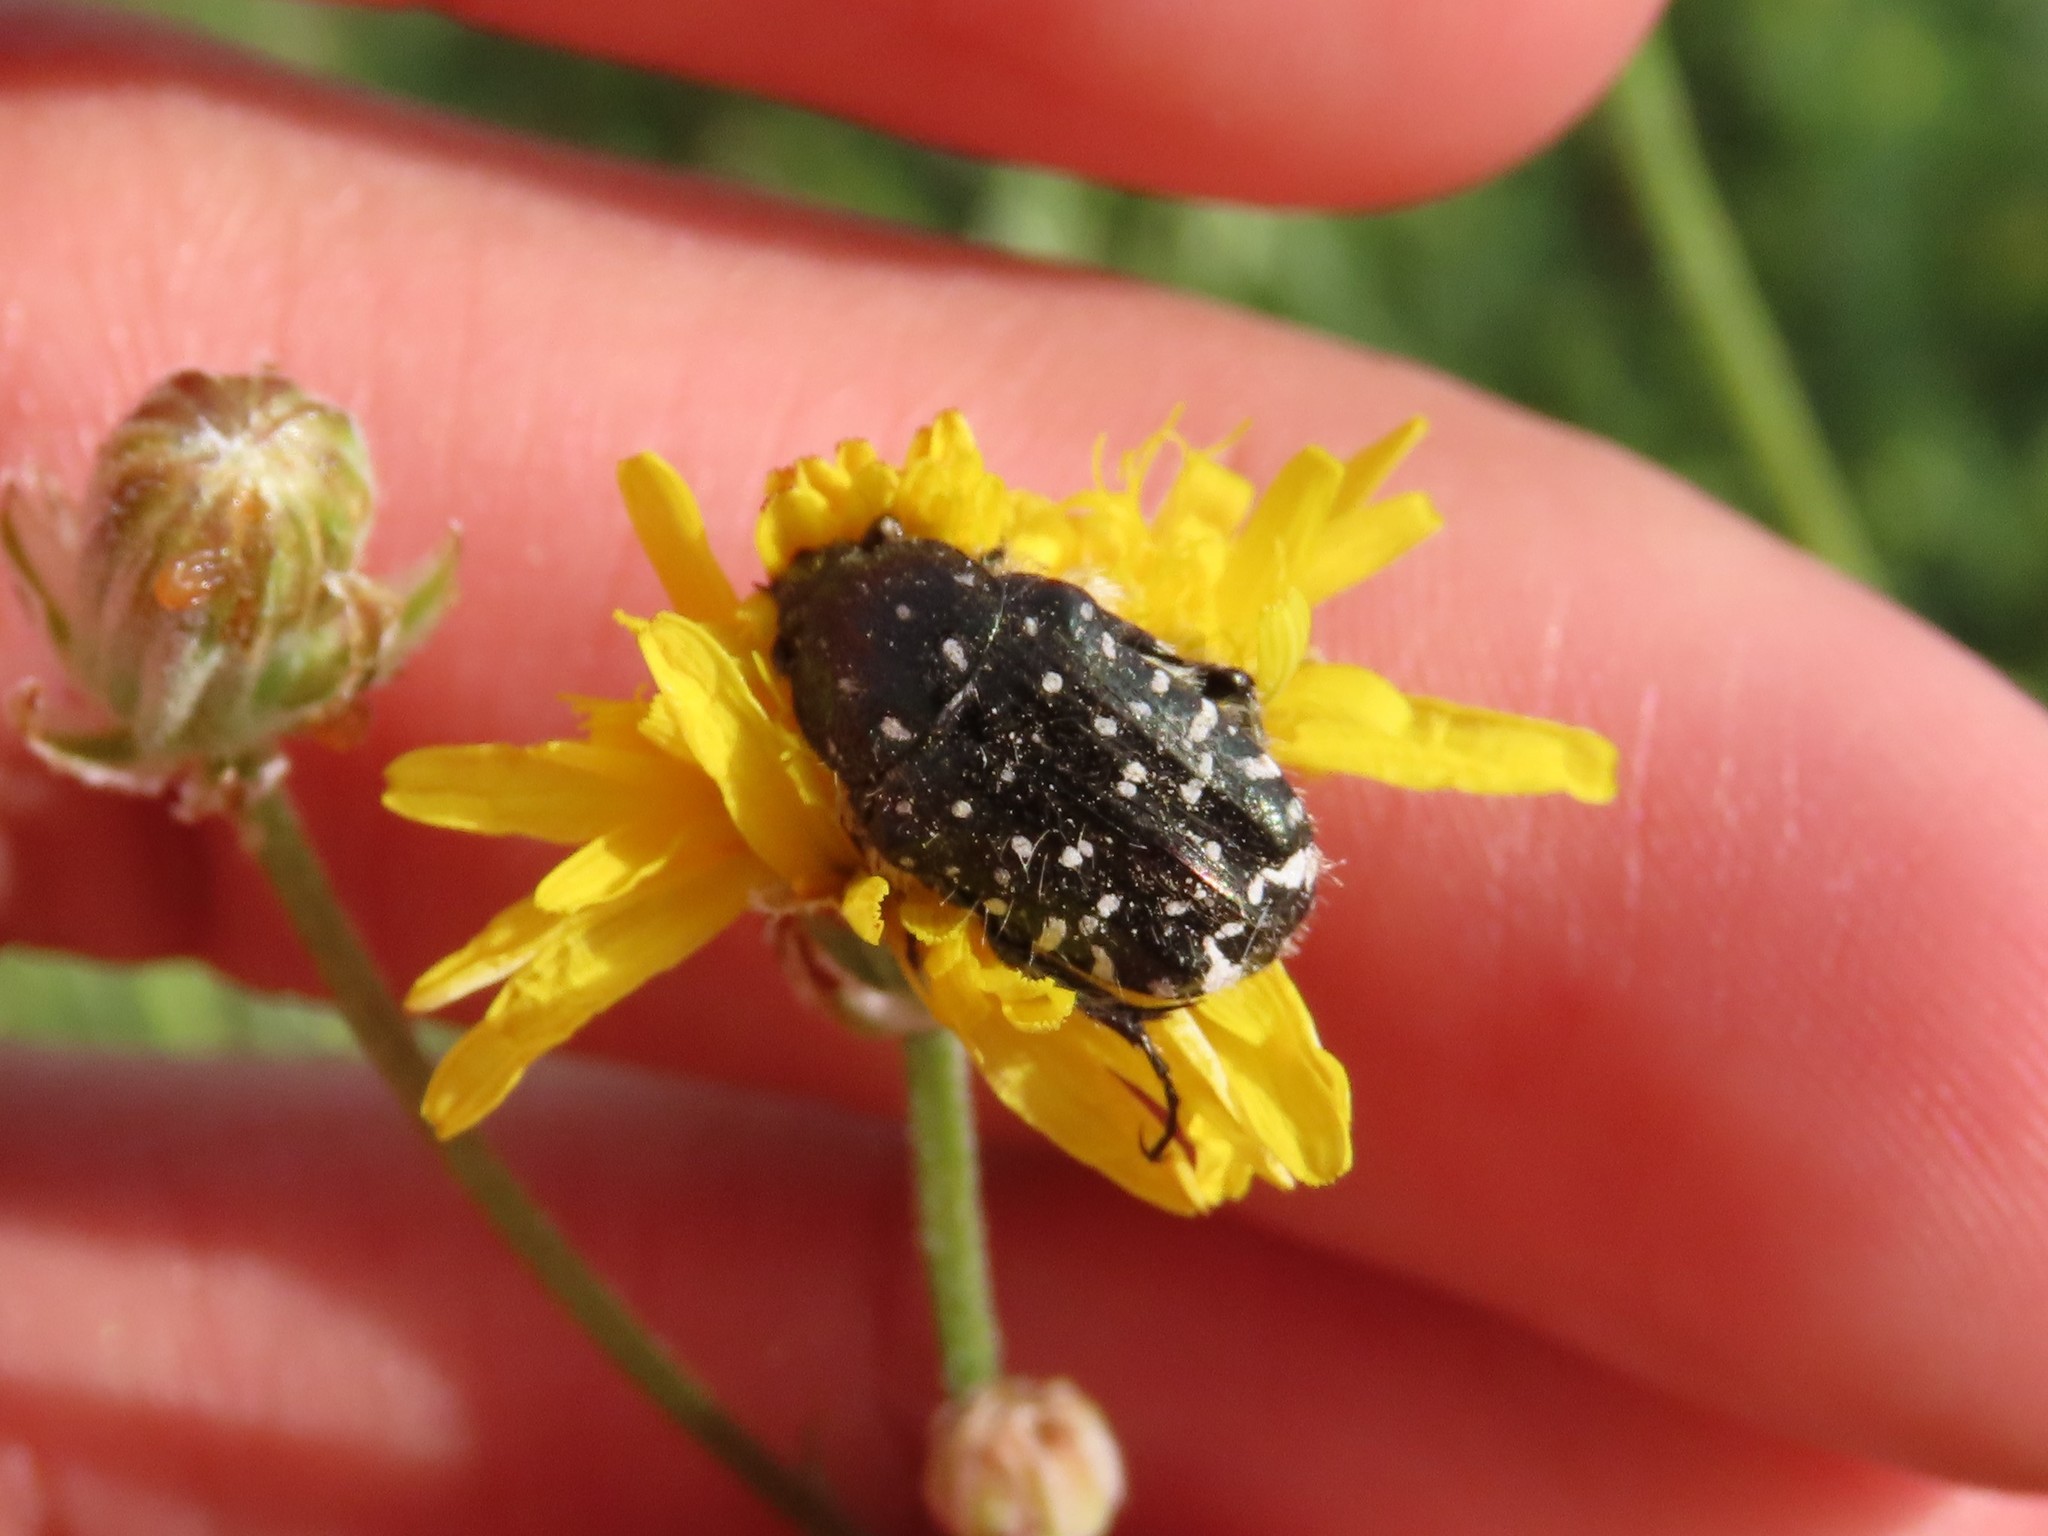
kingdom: Animalia
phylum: Arthropoda
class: Insecta
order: Coleoptera
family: Scarabaeidae
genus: Oxythyrea
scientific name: Oxythyrea funesta
